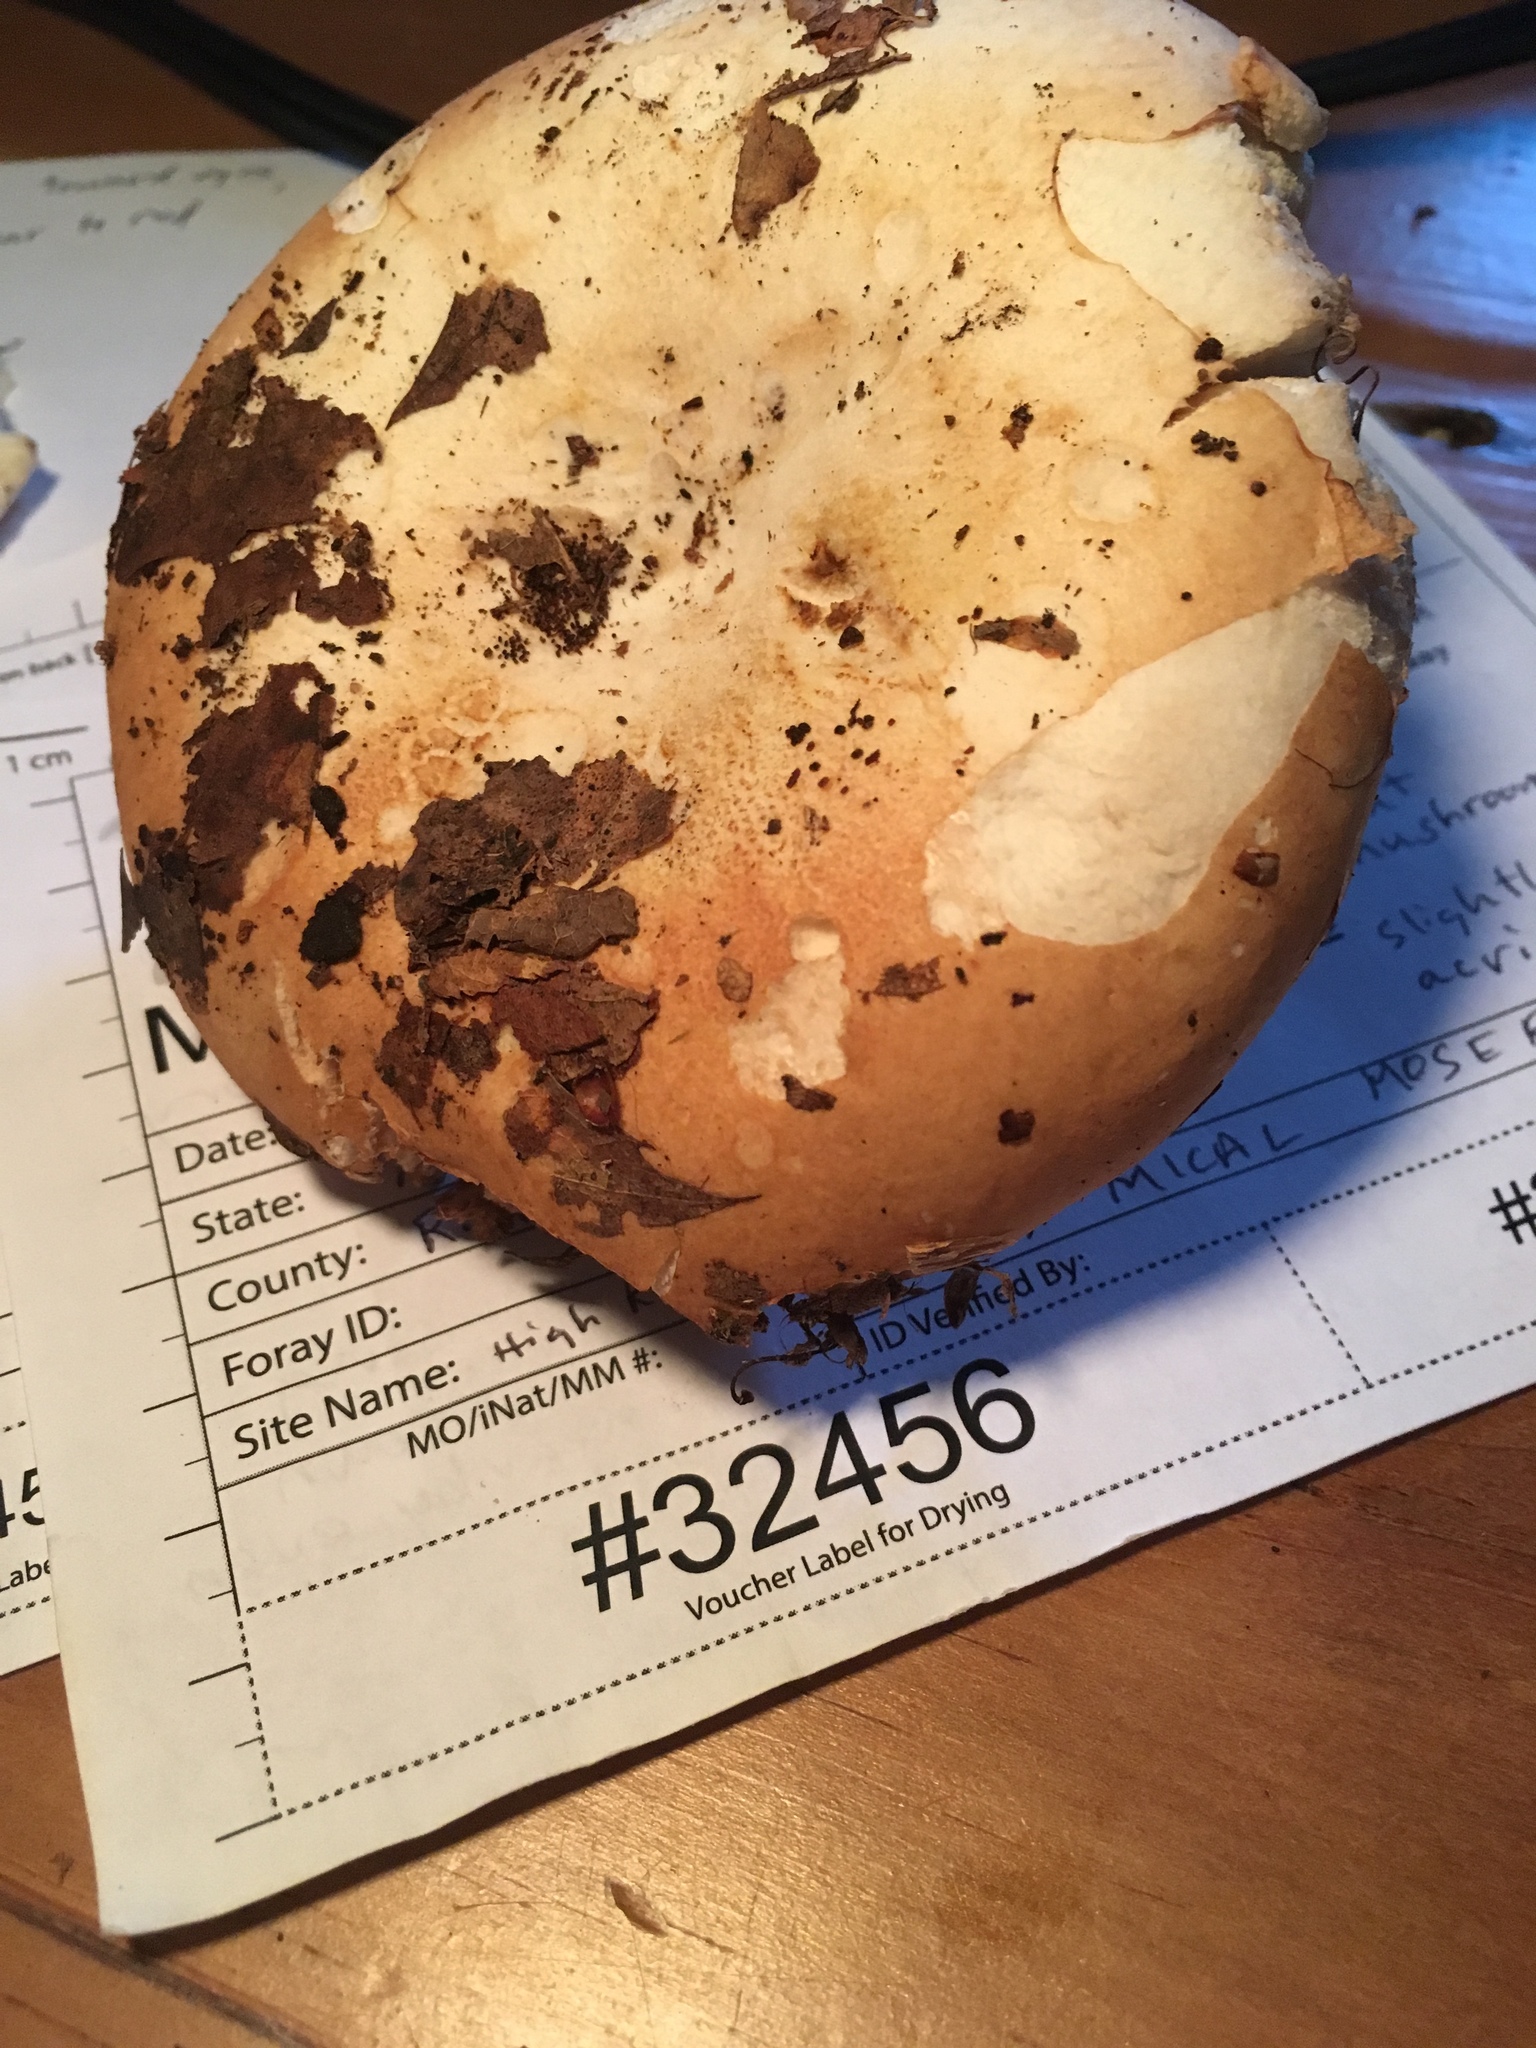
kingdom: Fungi
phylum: Basidiomycota
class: Agaricomycetes
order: Russulales
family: Russulaceae
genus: Russula
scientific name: Russula compacta
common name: Fishbiscuit russula
